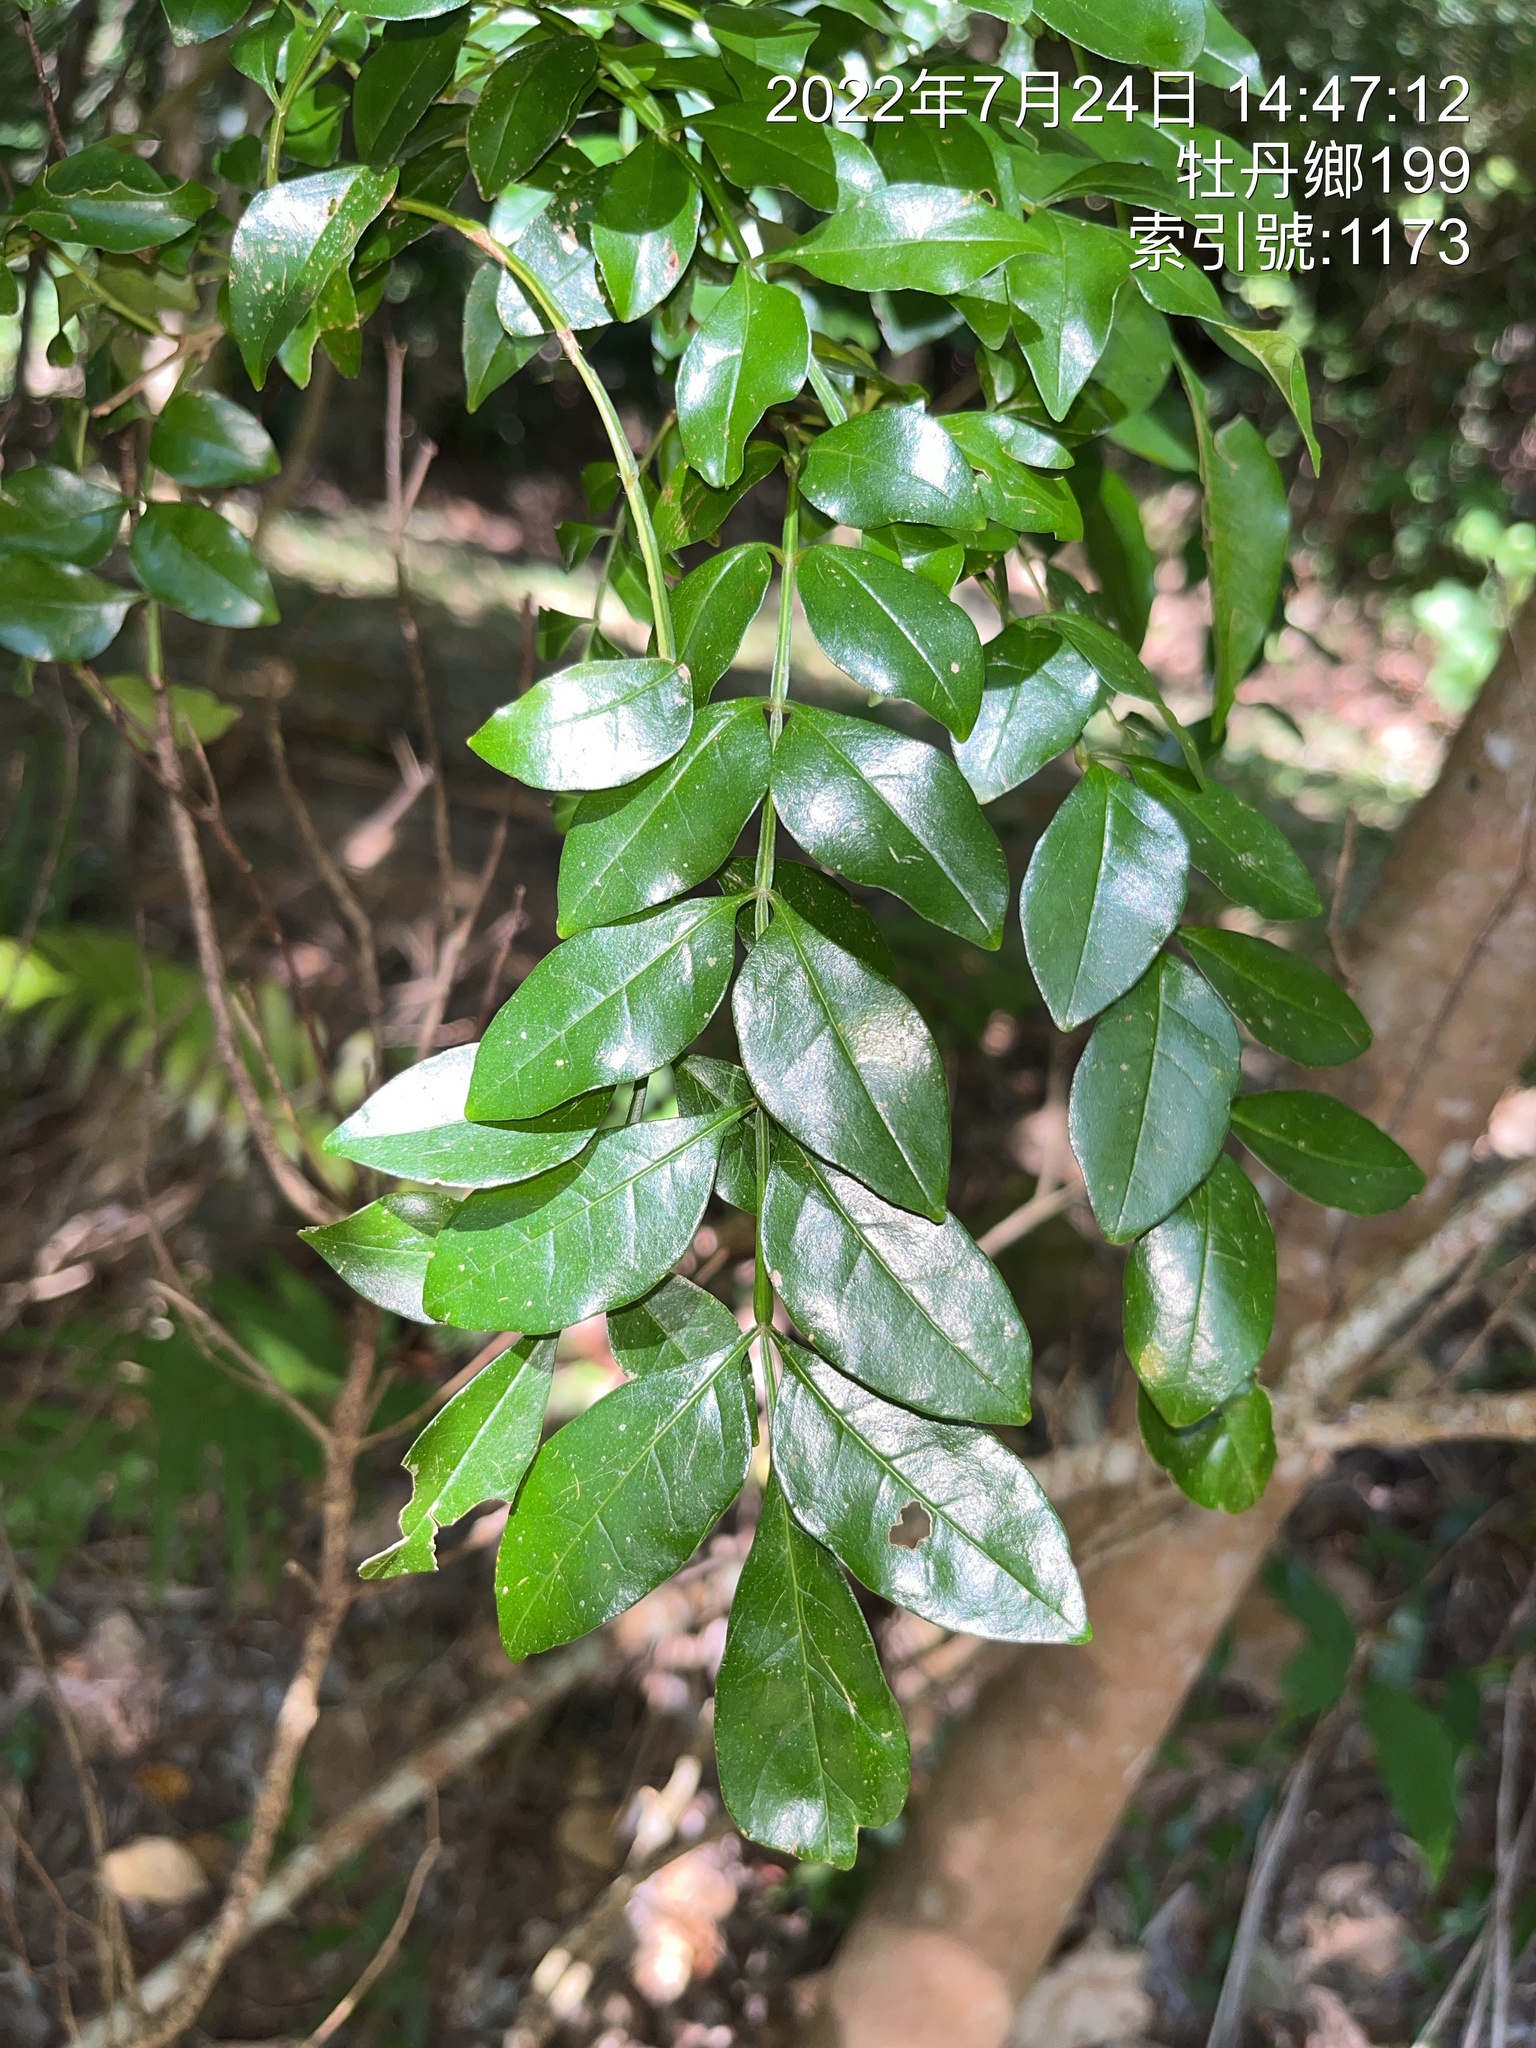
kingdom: Plantae
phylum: Tracheophyta
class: Magnoliopsida
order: Lamiales
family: Oleaceae
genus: Fraxinus
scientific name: Fraxinus griffithii
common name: Himalayan ash
